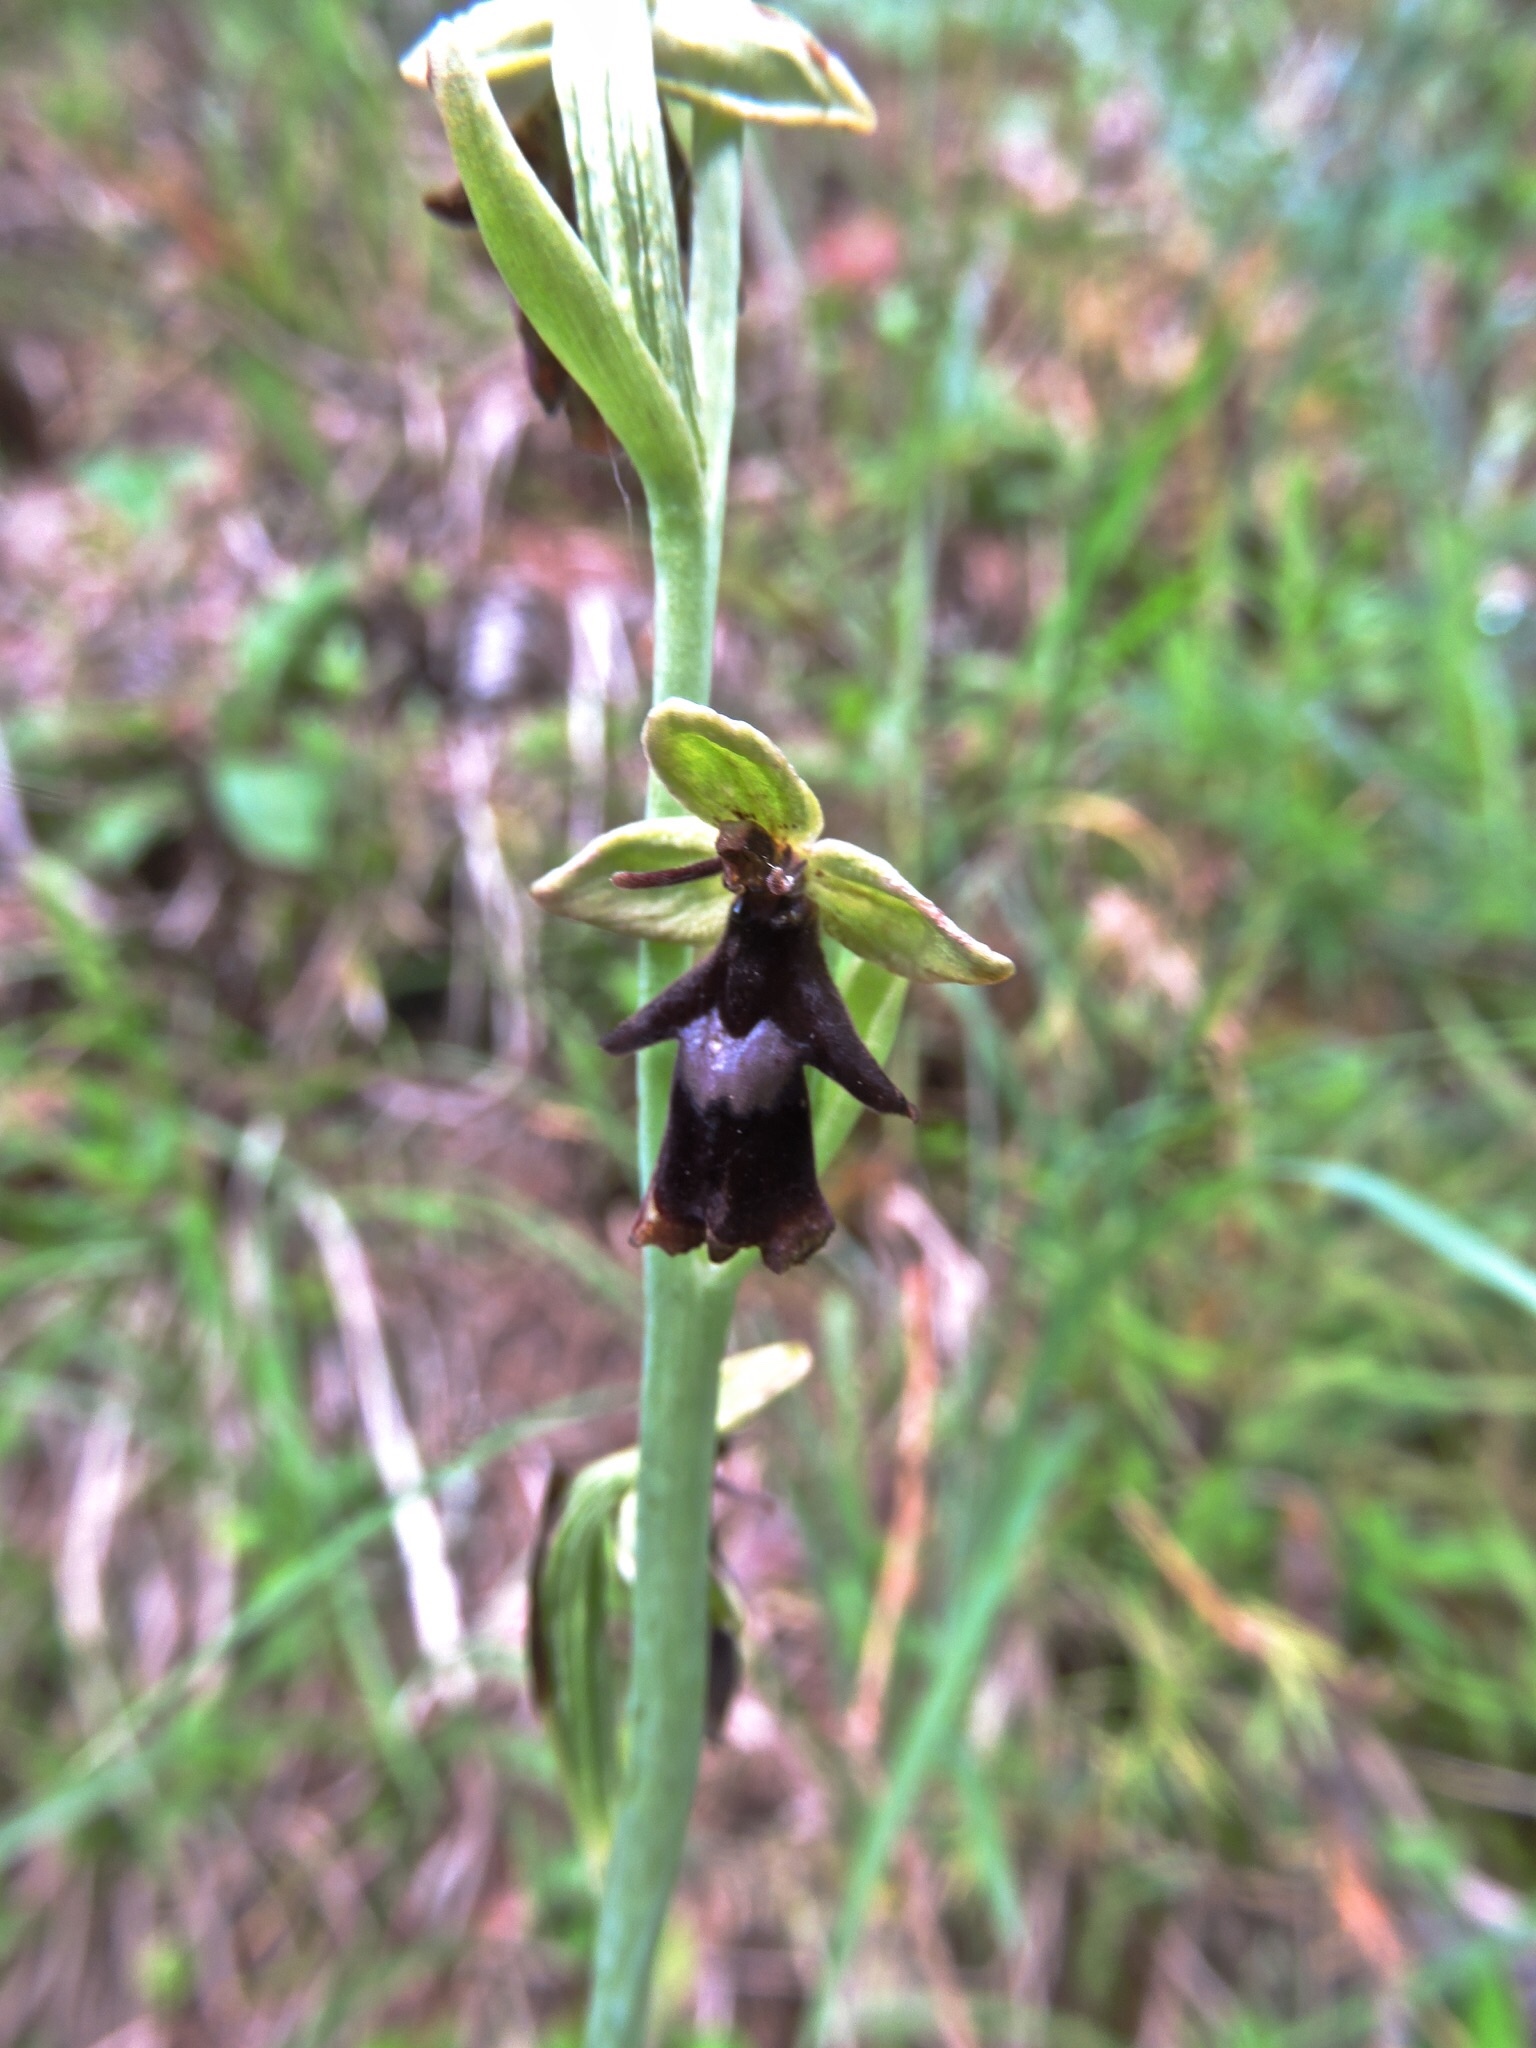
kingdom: Plantae
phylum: Tracheophyta
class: Liliopsida
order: Asparagales
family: Orchidaceae
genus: Ophrys
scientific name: Ophrys insectifera
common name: Fly orchid
